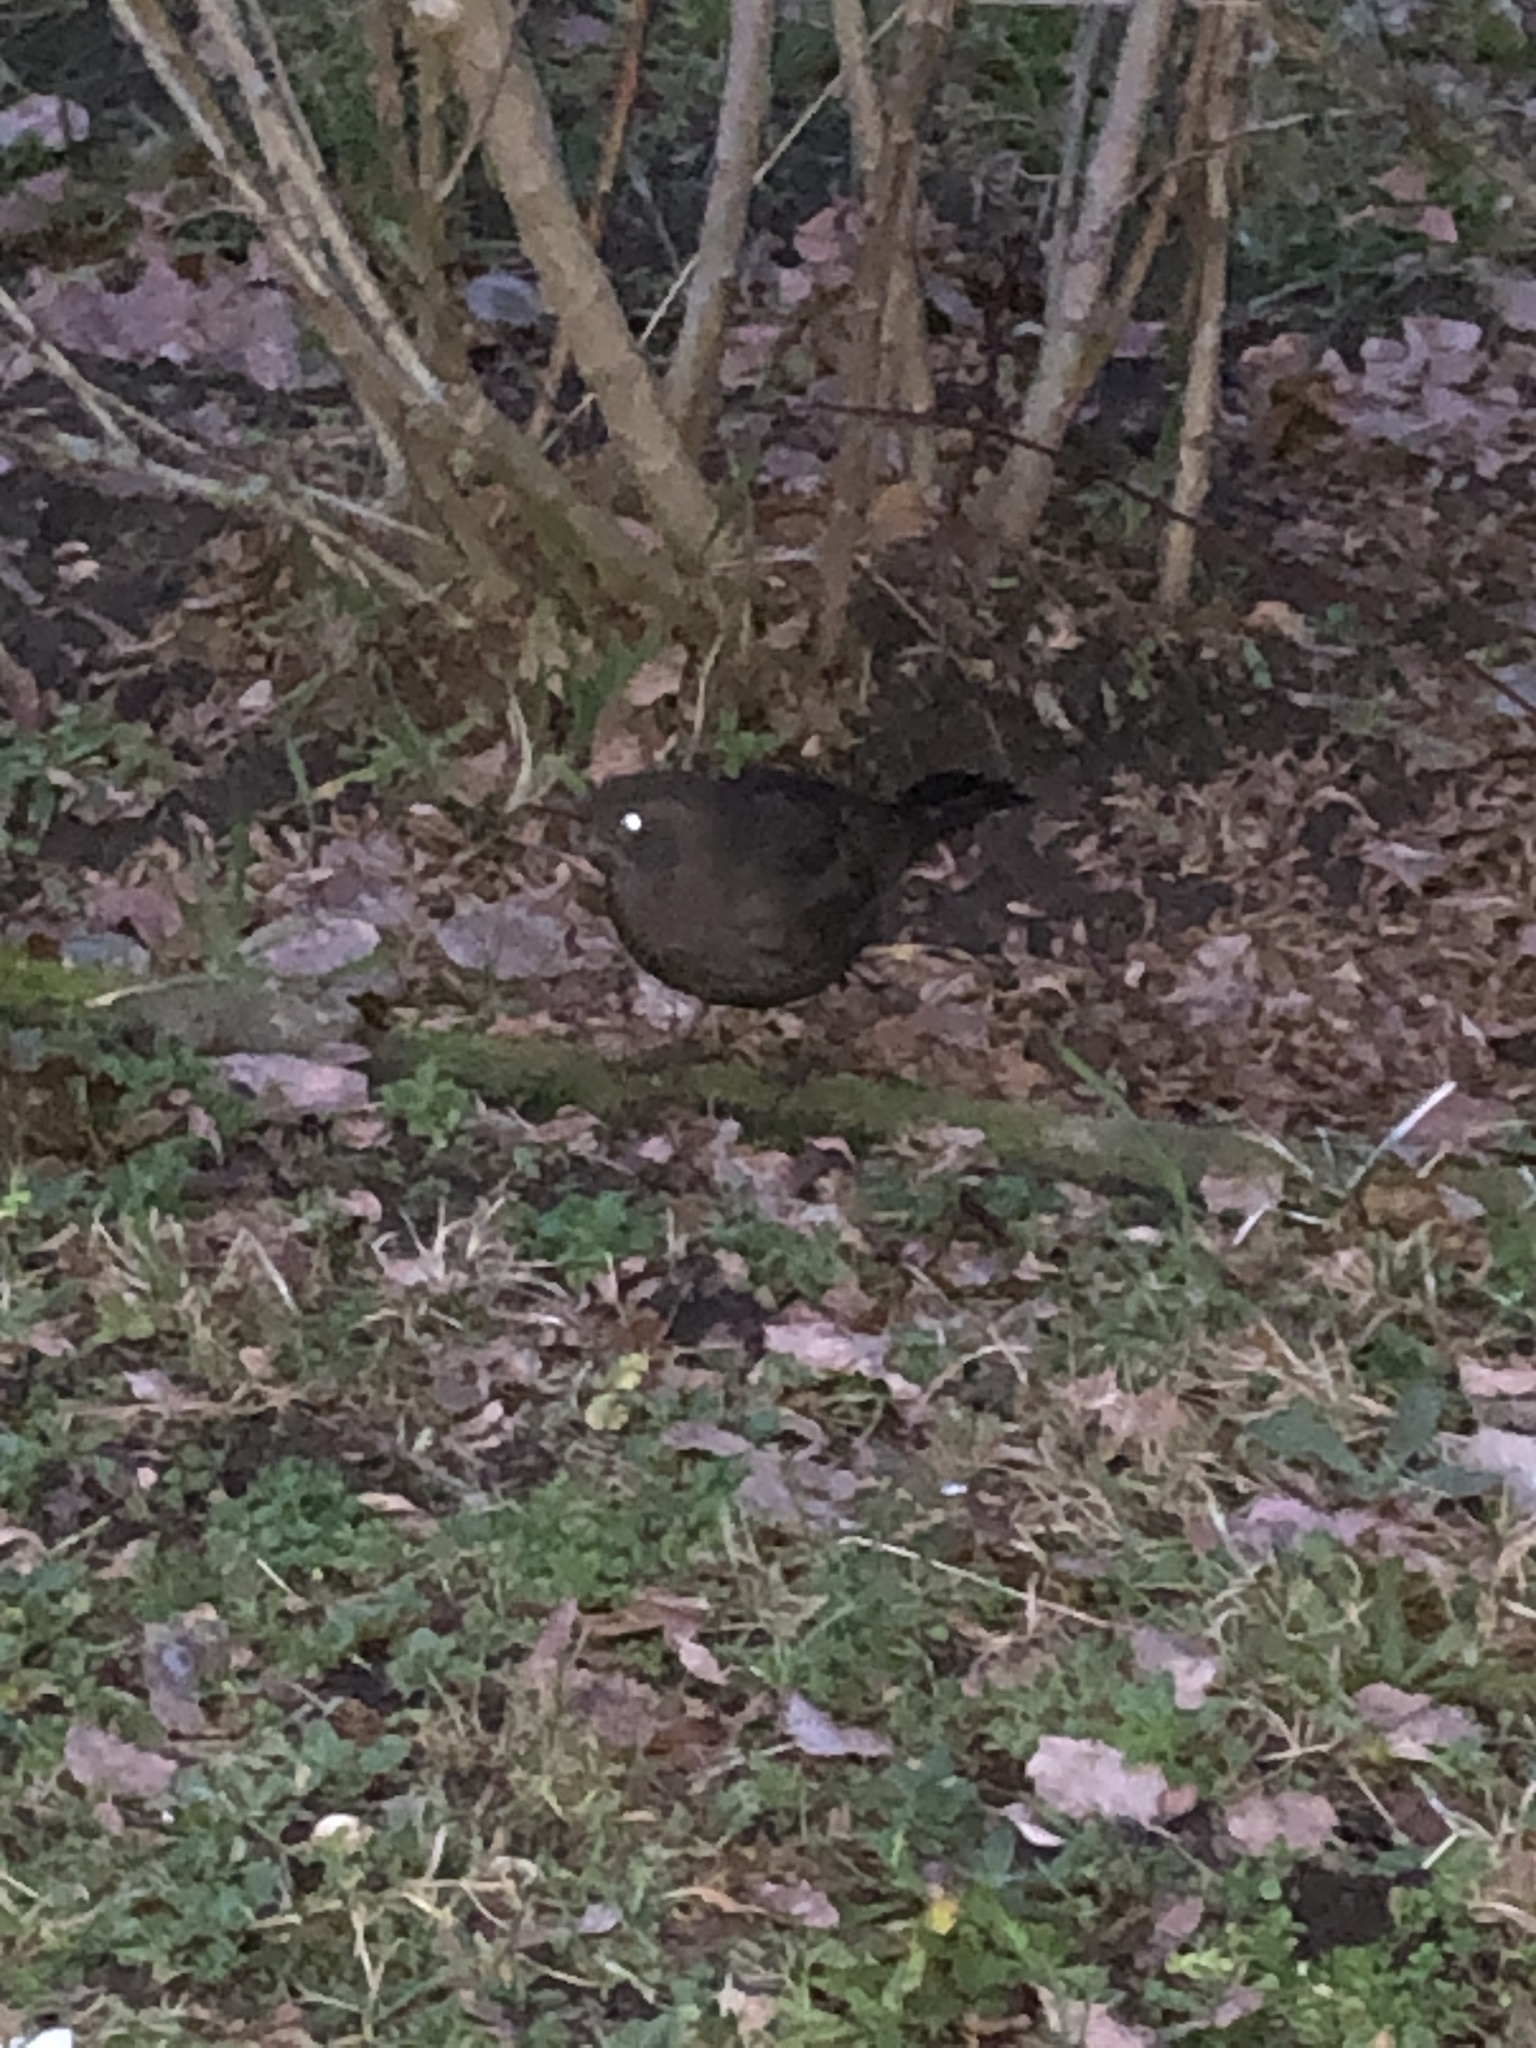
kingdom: Animalia
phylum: Chordata
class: Aves
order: Passeriformes
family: Turdidae
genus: Turdus
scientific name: Turdus merula
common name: Common blackbird
